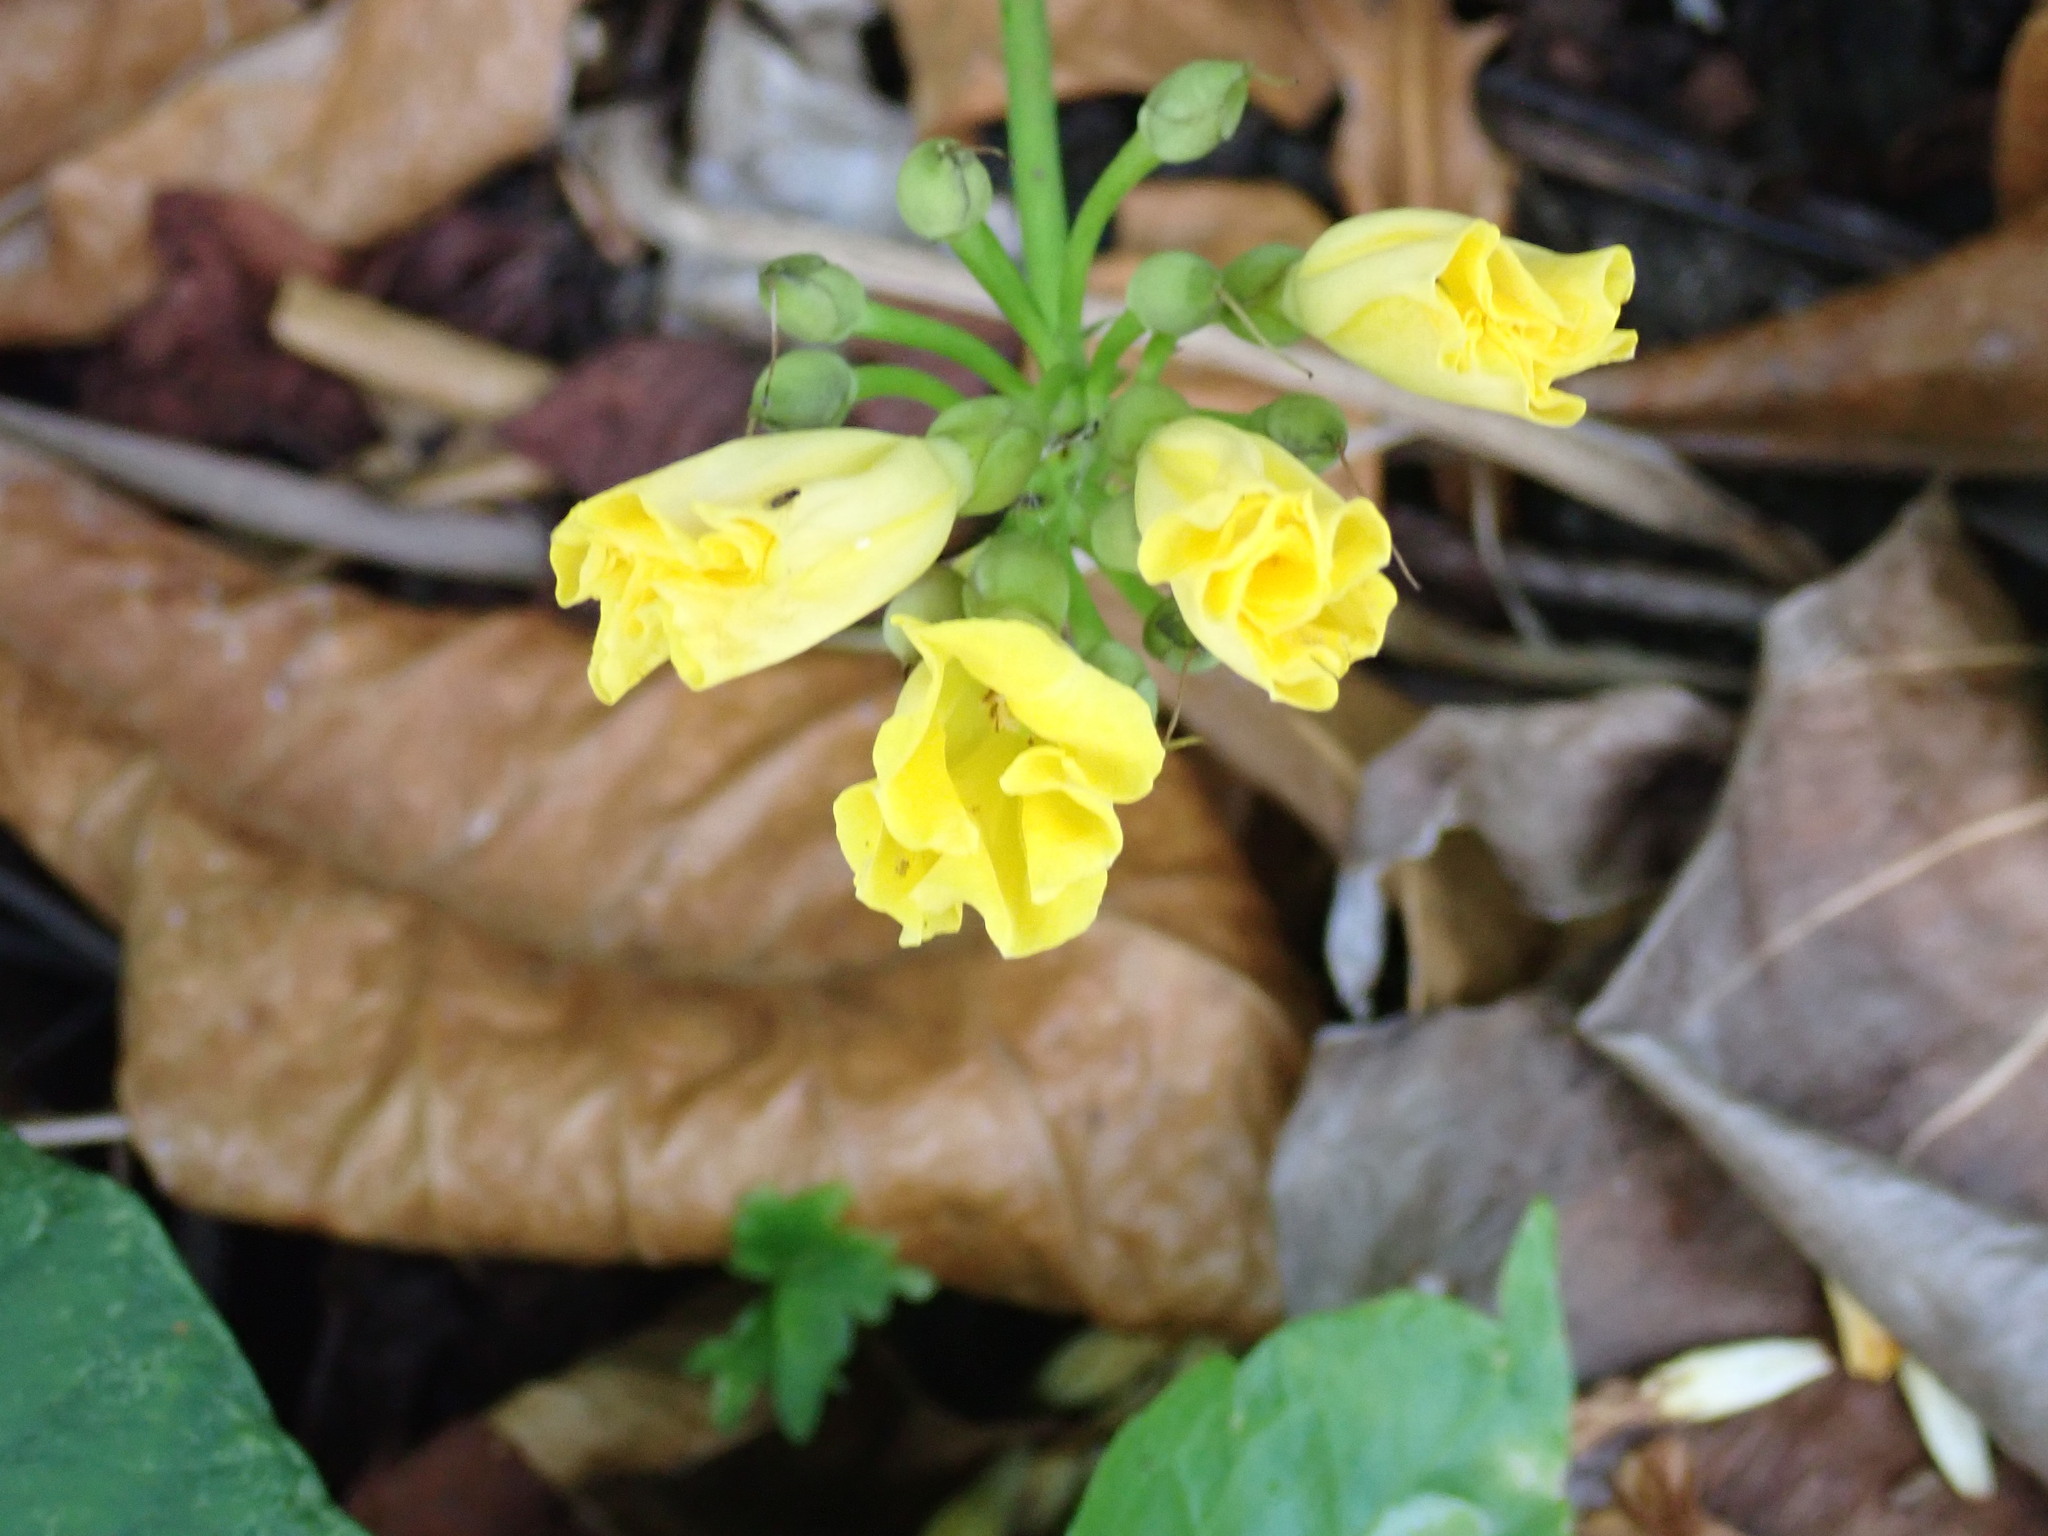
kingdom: Plantae
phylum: Tracheophyta
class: Magnoliopsida
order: Solanales
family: Convolvulaceae
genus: Camonea
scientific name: Camonea umbellata
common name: Hogvine
